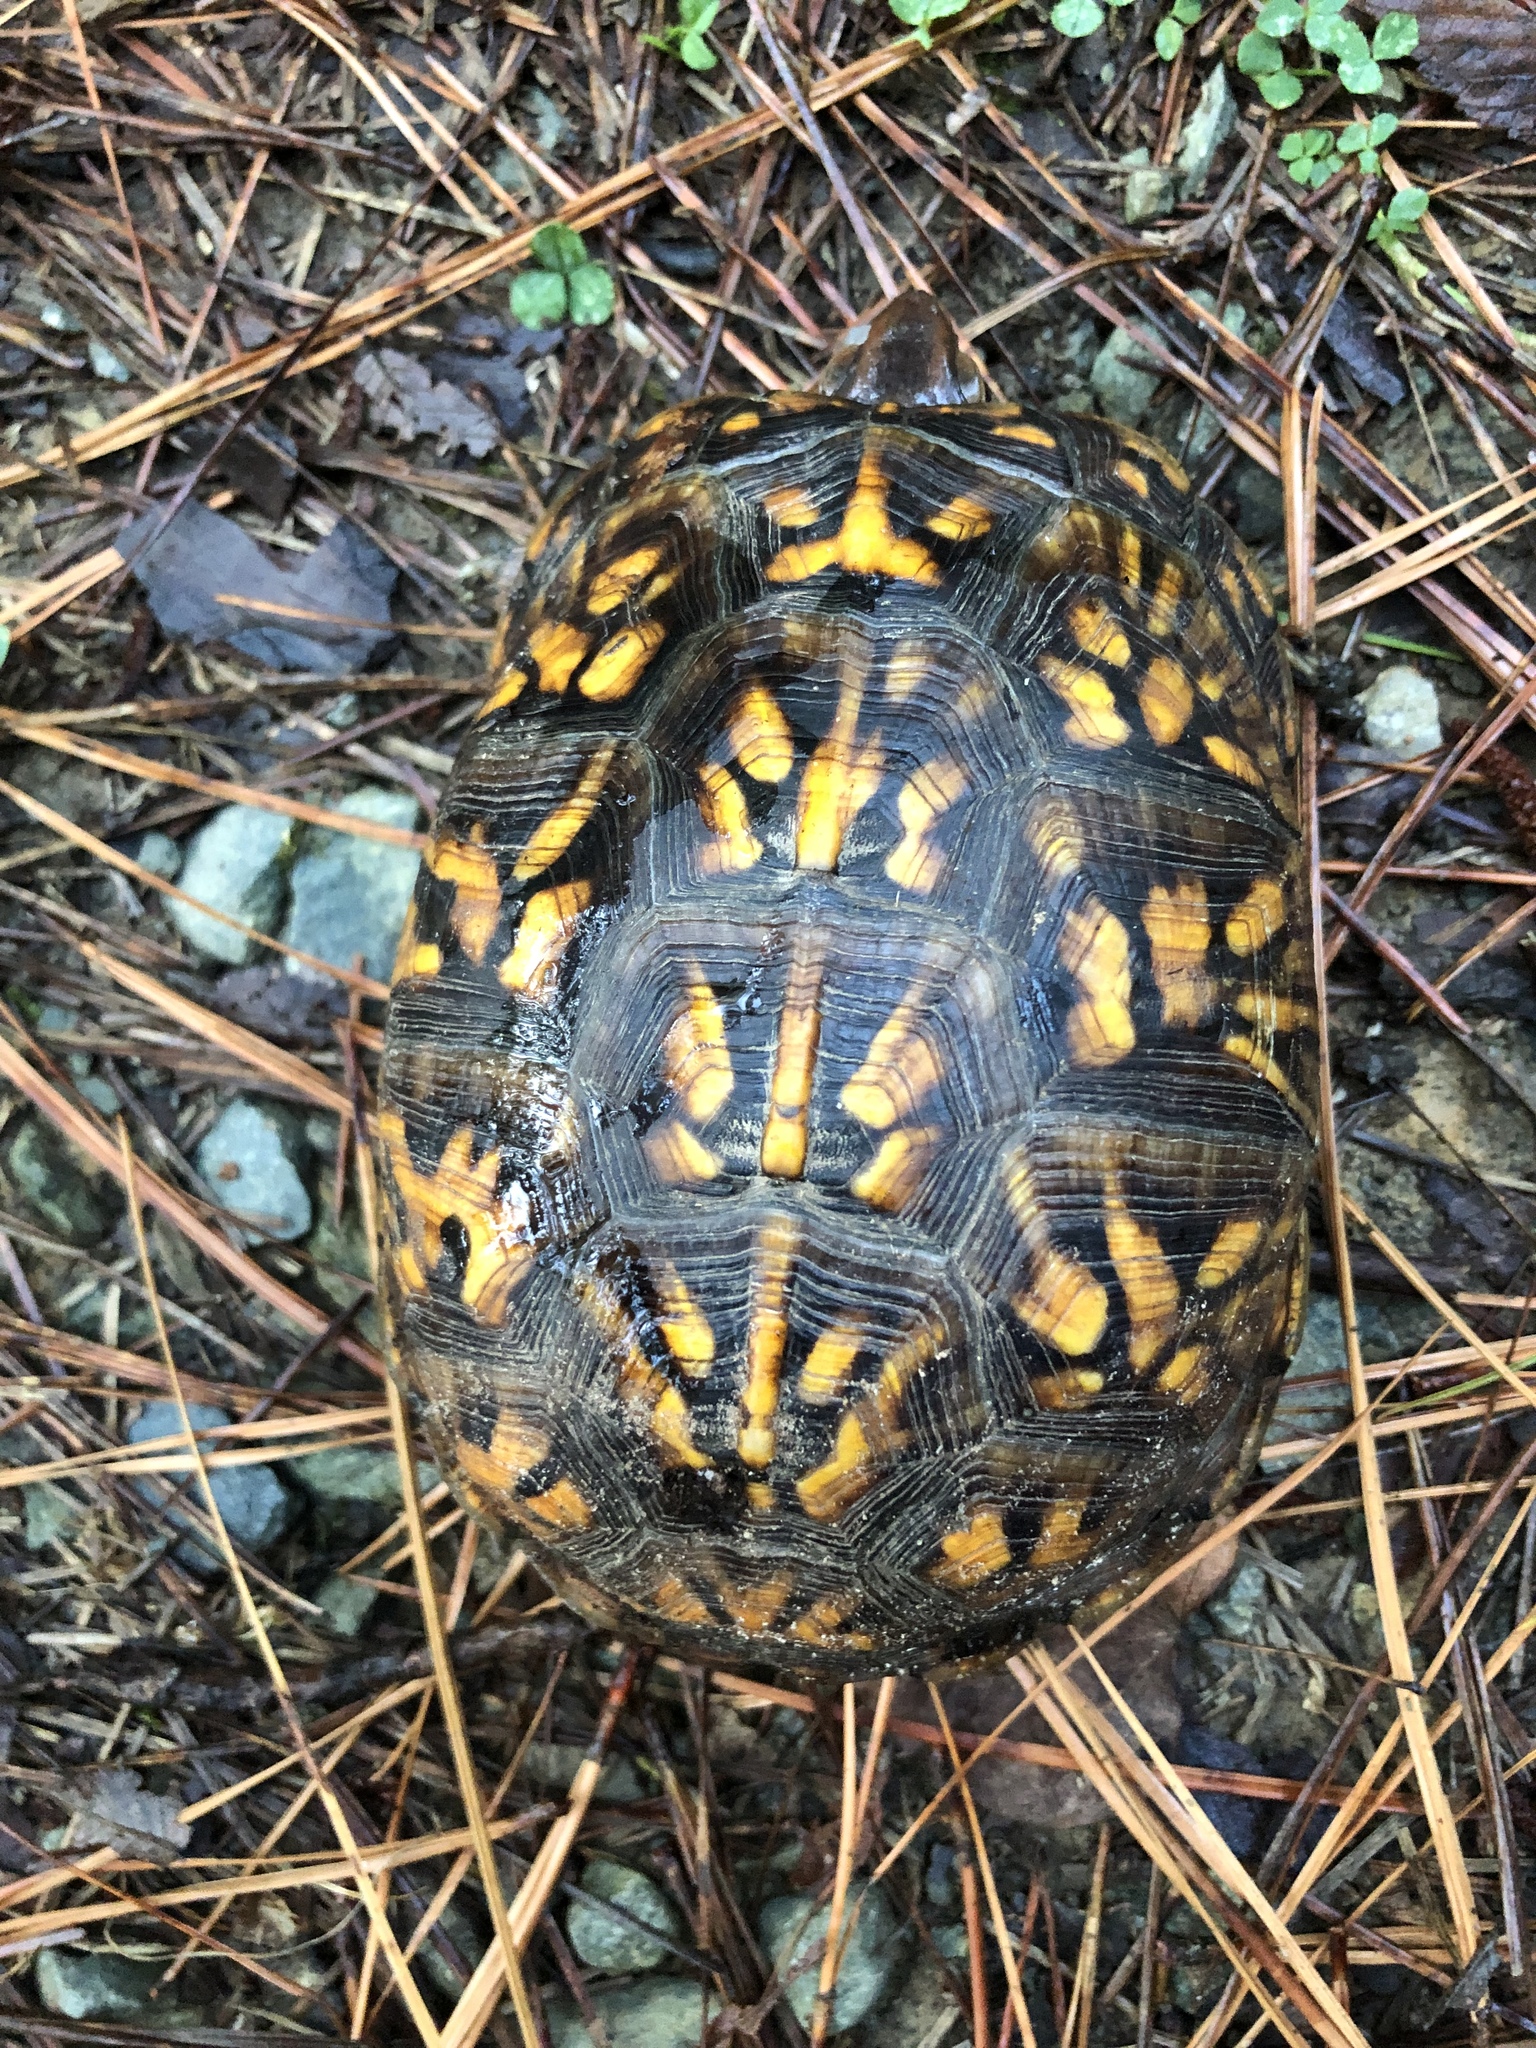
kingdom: Animalia
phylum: Chordata
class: Testudines
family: Emydidae
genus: Terrapene
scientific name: Terrapene carolina
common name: Common box turtle
